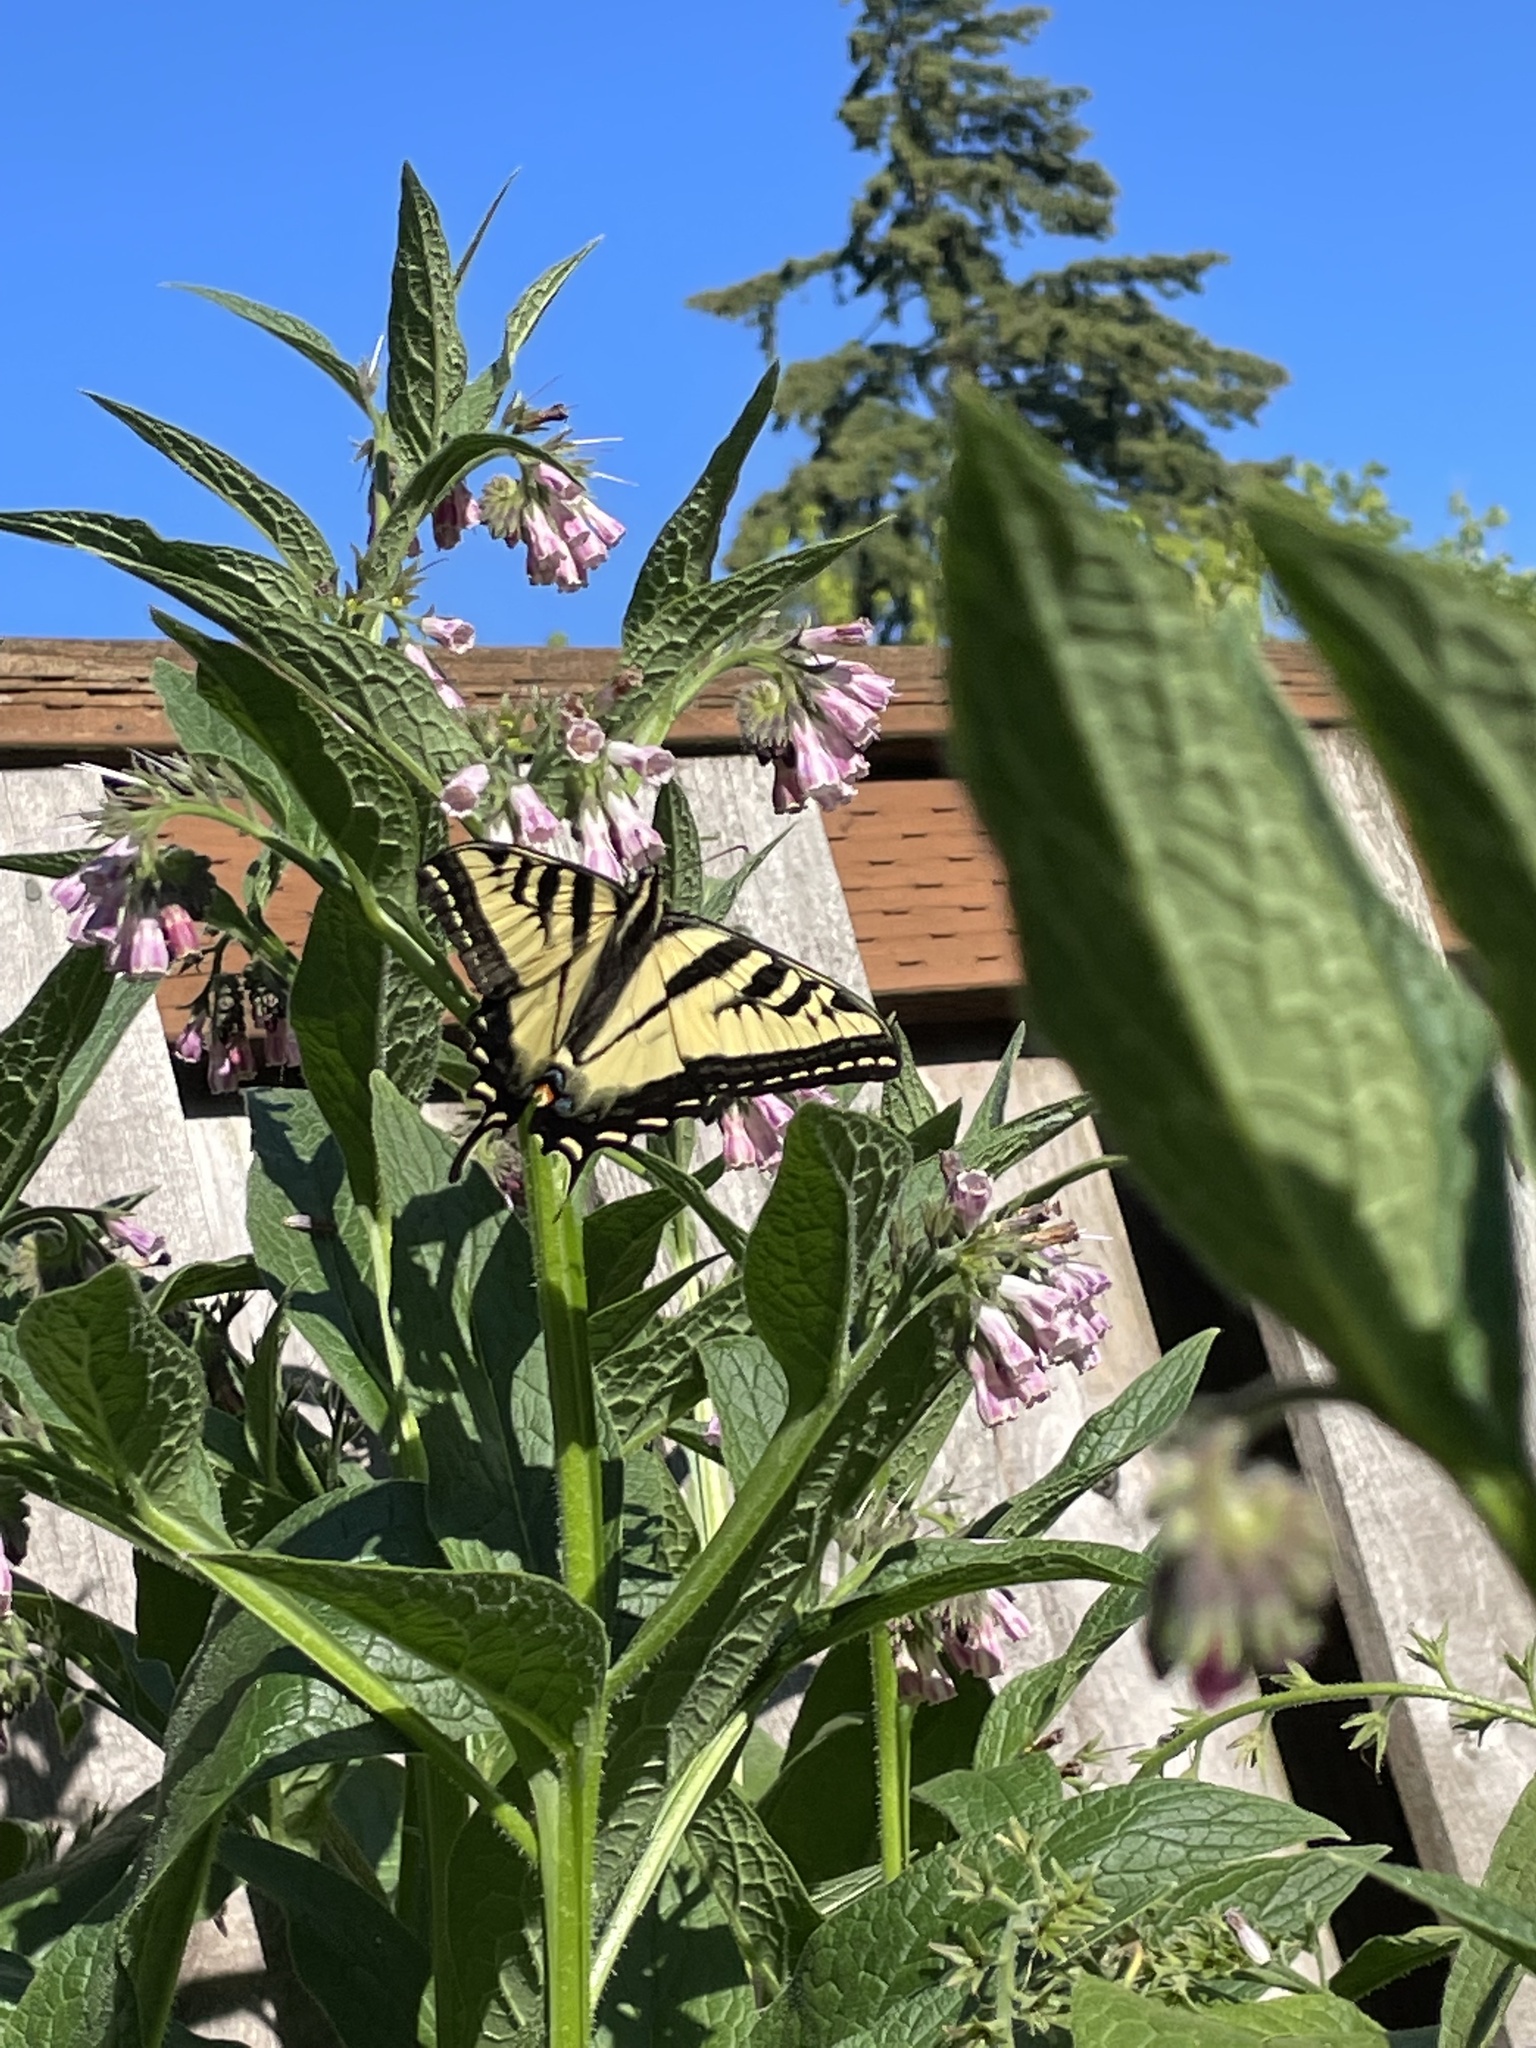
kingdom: Animalia
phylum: Arthropoda
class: Insecta
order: Lepidoptera
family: Papilionidae
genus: Papilio
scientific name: Papilio rutulus
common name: Western tiger swallowtail
